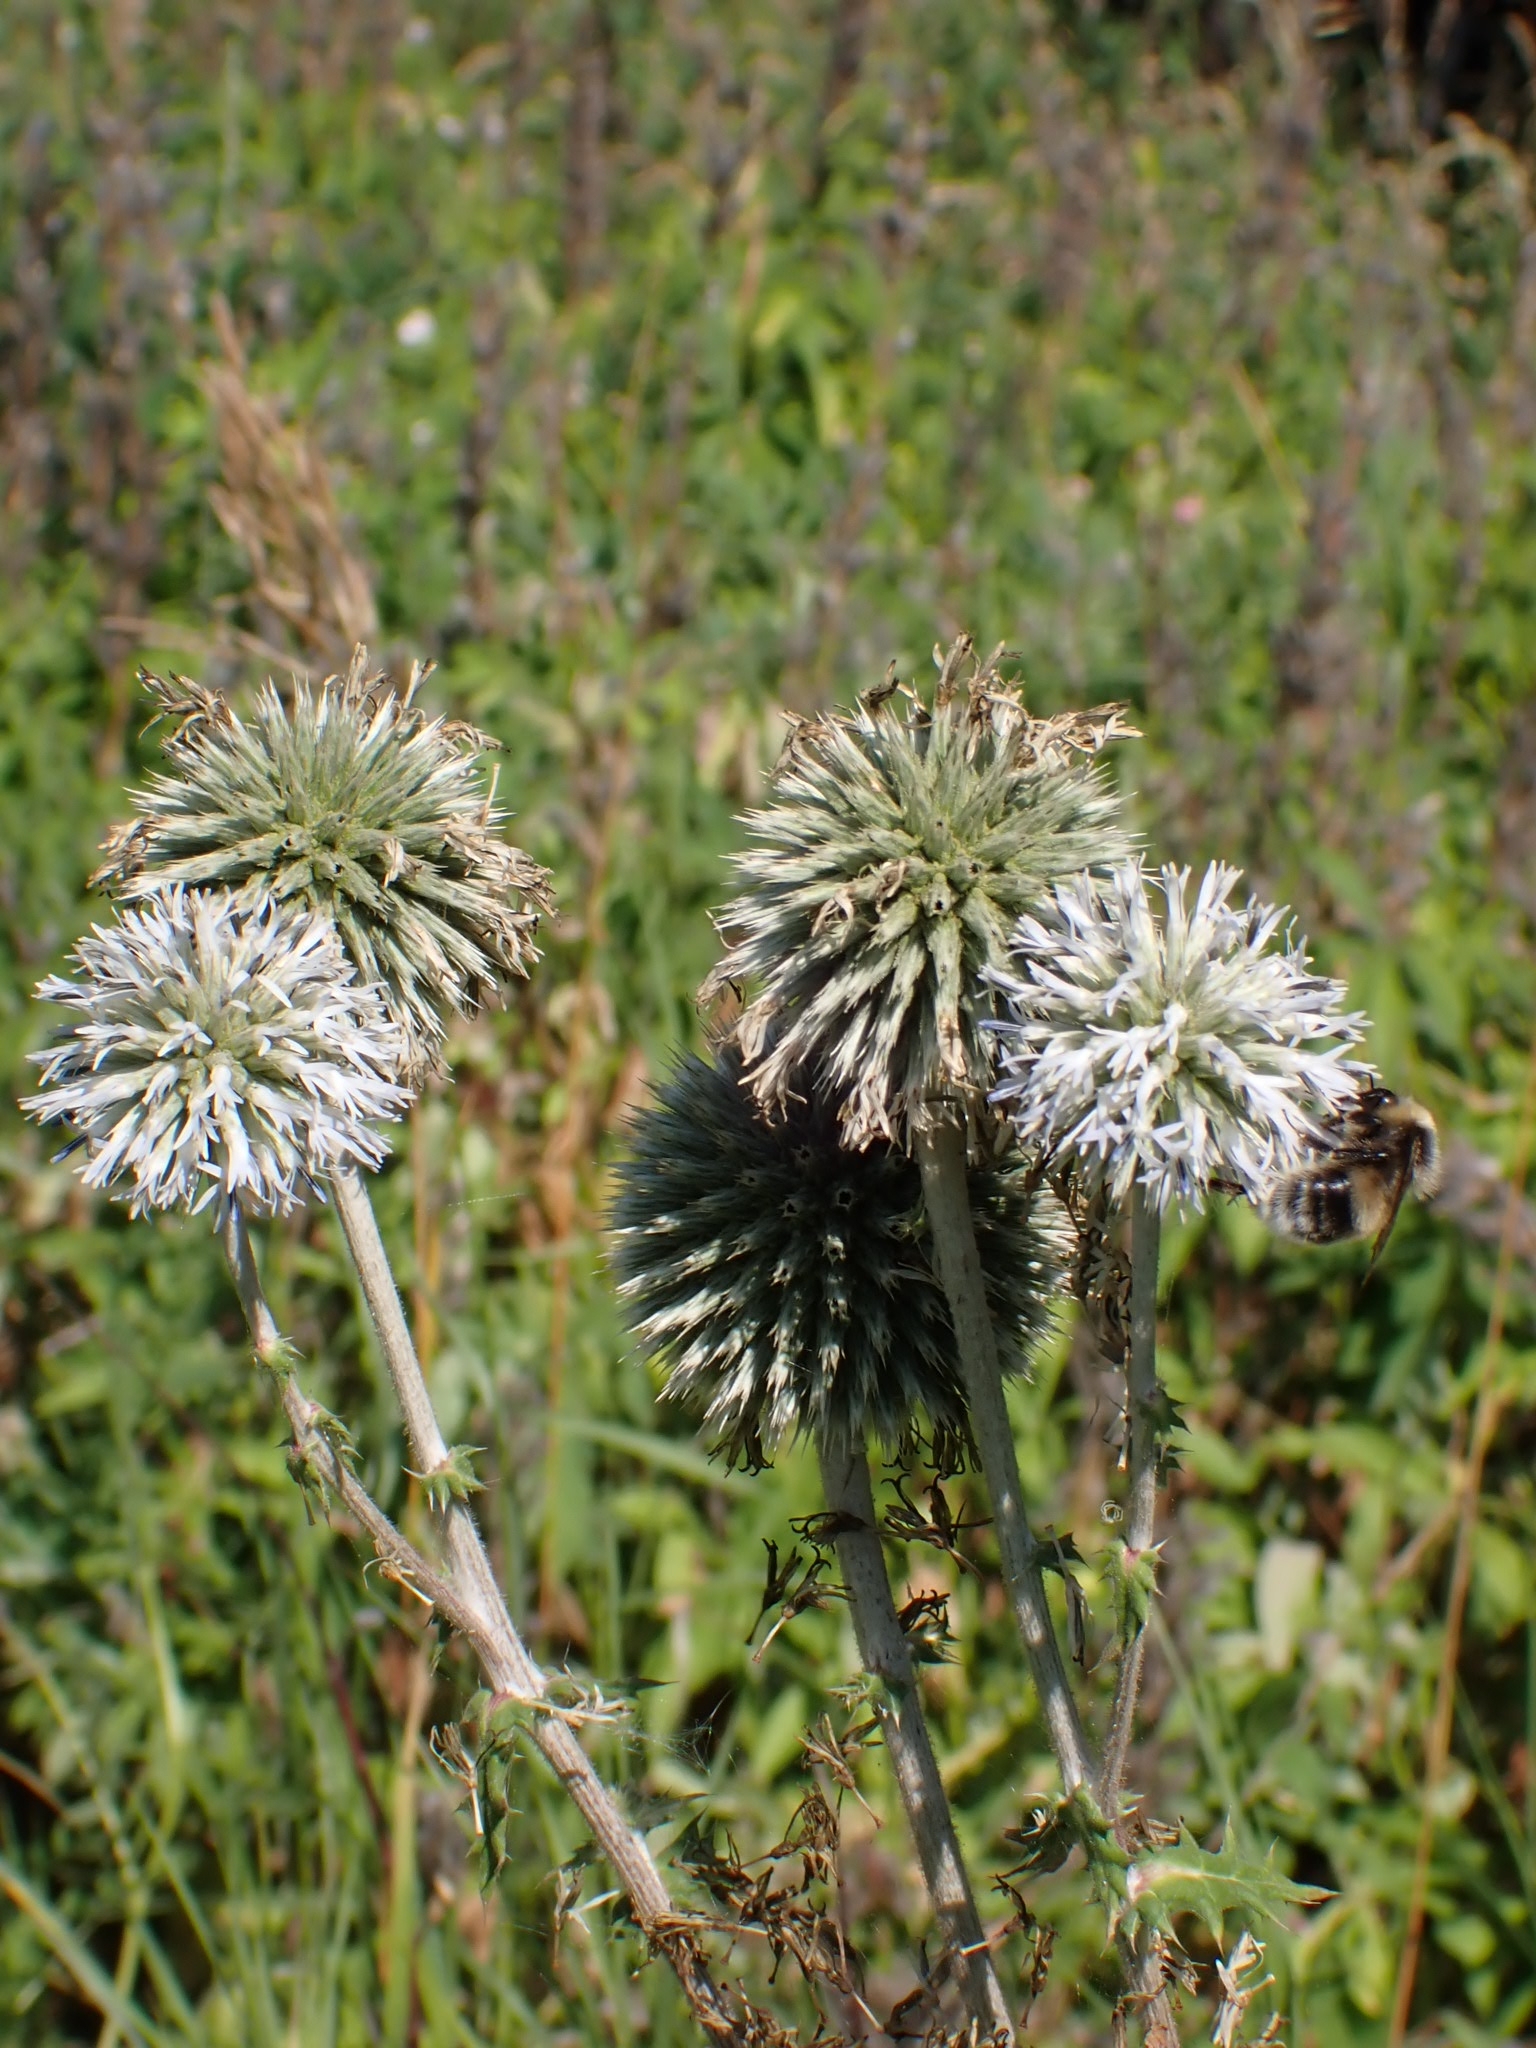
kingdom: Plantae
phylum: Tracheophyta
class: Magnoliopsida
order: Asterales
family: Asteraceae
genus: Echinops
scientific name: Echinops sphaerocephalus
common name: Glandular globe-thistle
